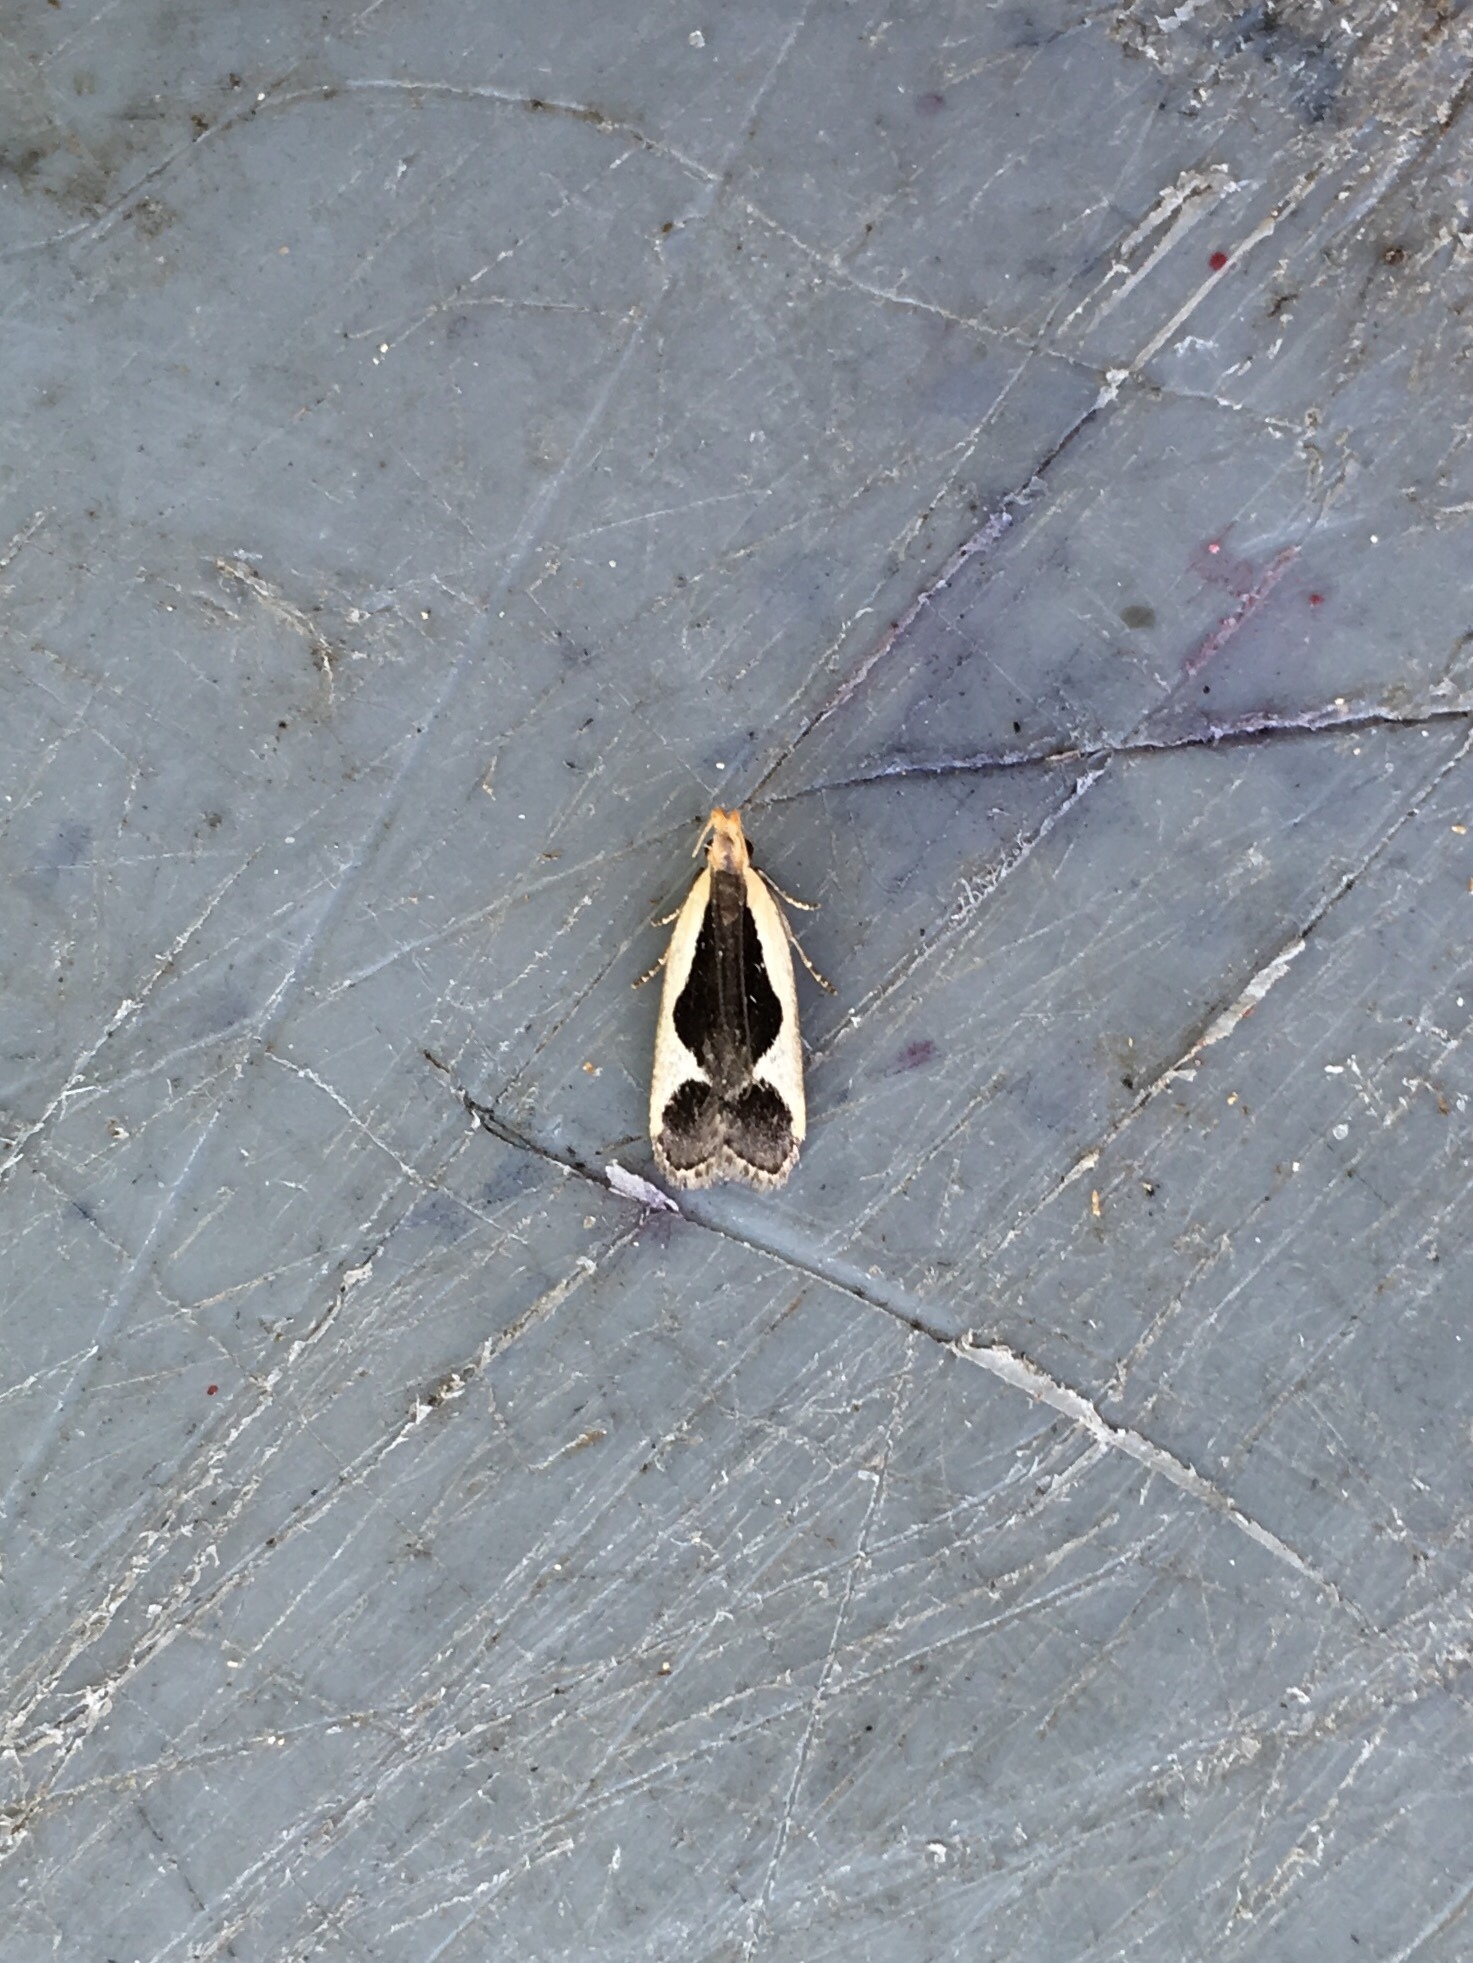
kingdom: Animalia
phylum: Arthropoda
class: Insecta
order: Lepidoptera
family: Gelechiidae
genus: Dichomeris
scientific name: Dichomeris flavocostella
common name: Cream-edged dichomeris moth
